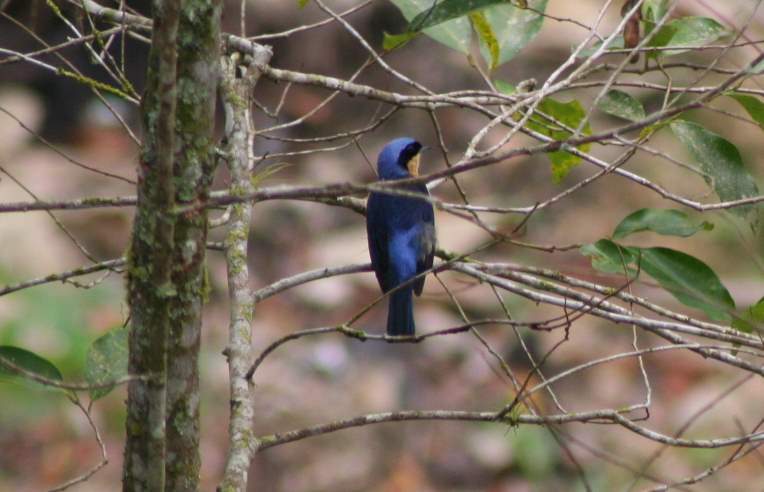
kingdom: Animalia
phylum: Chordata
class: Aves
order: Passeriformes
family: Thraupidae
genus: Pipraeidea
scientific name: Pipraeidea melanonota
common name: Fawn-breasted tanager
